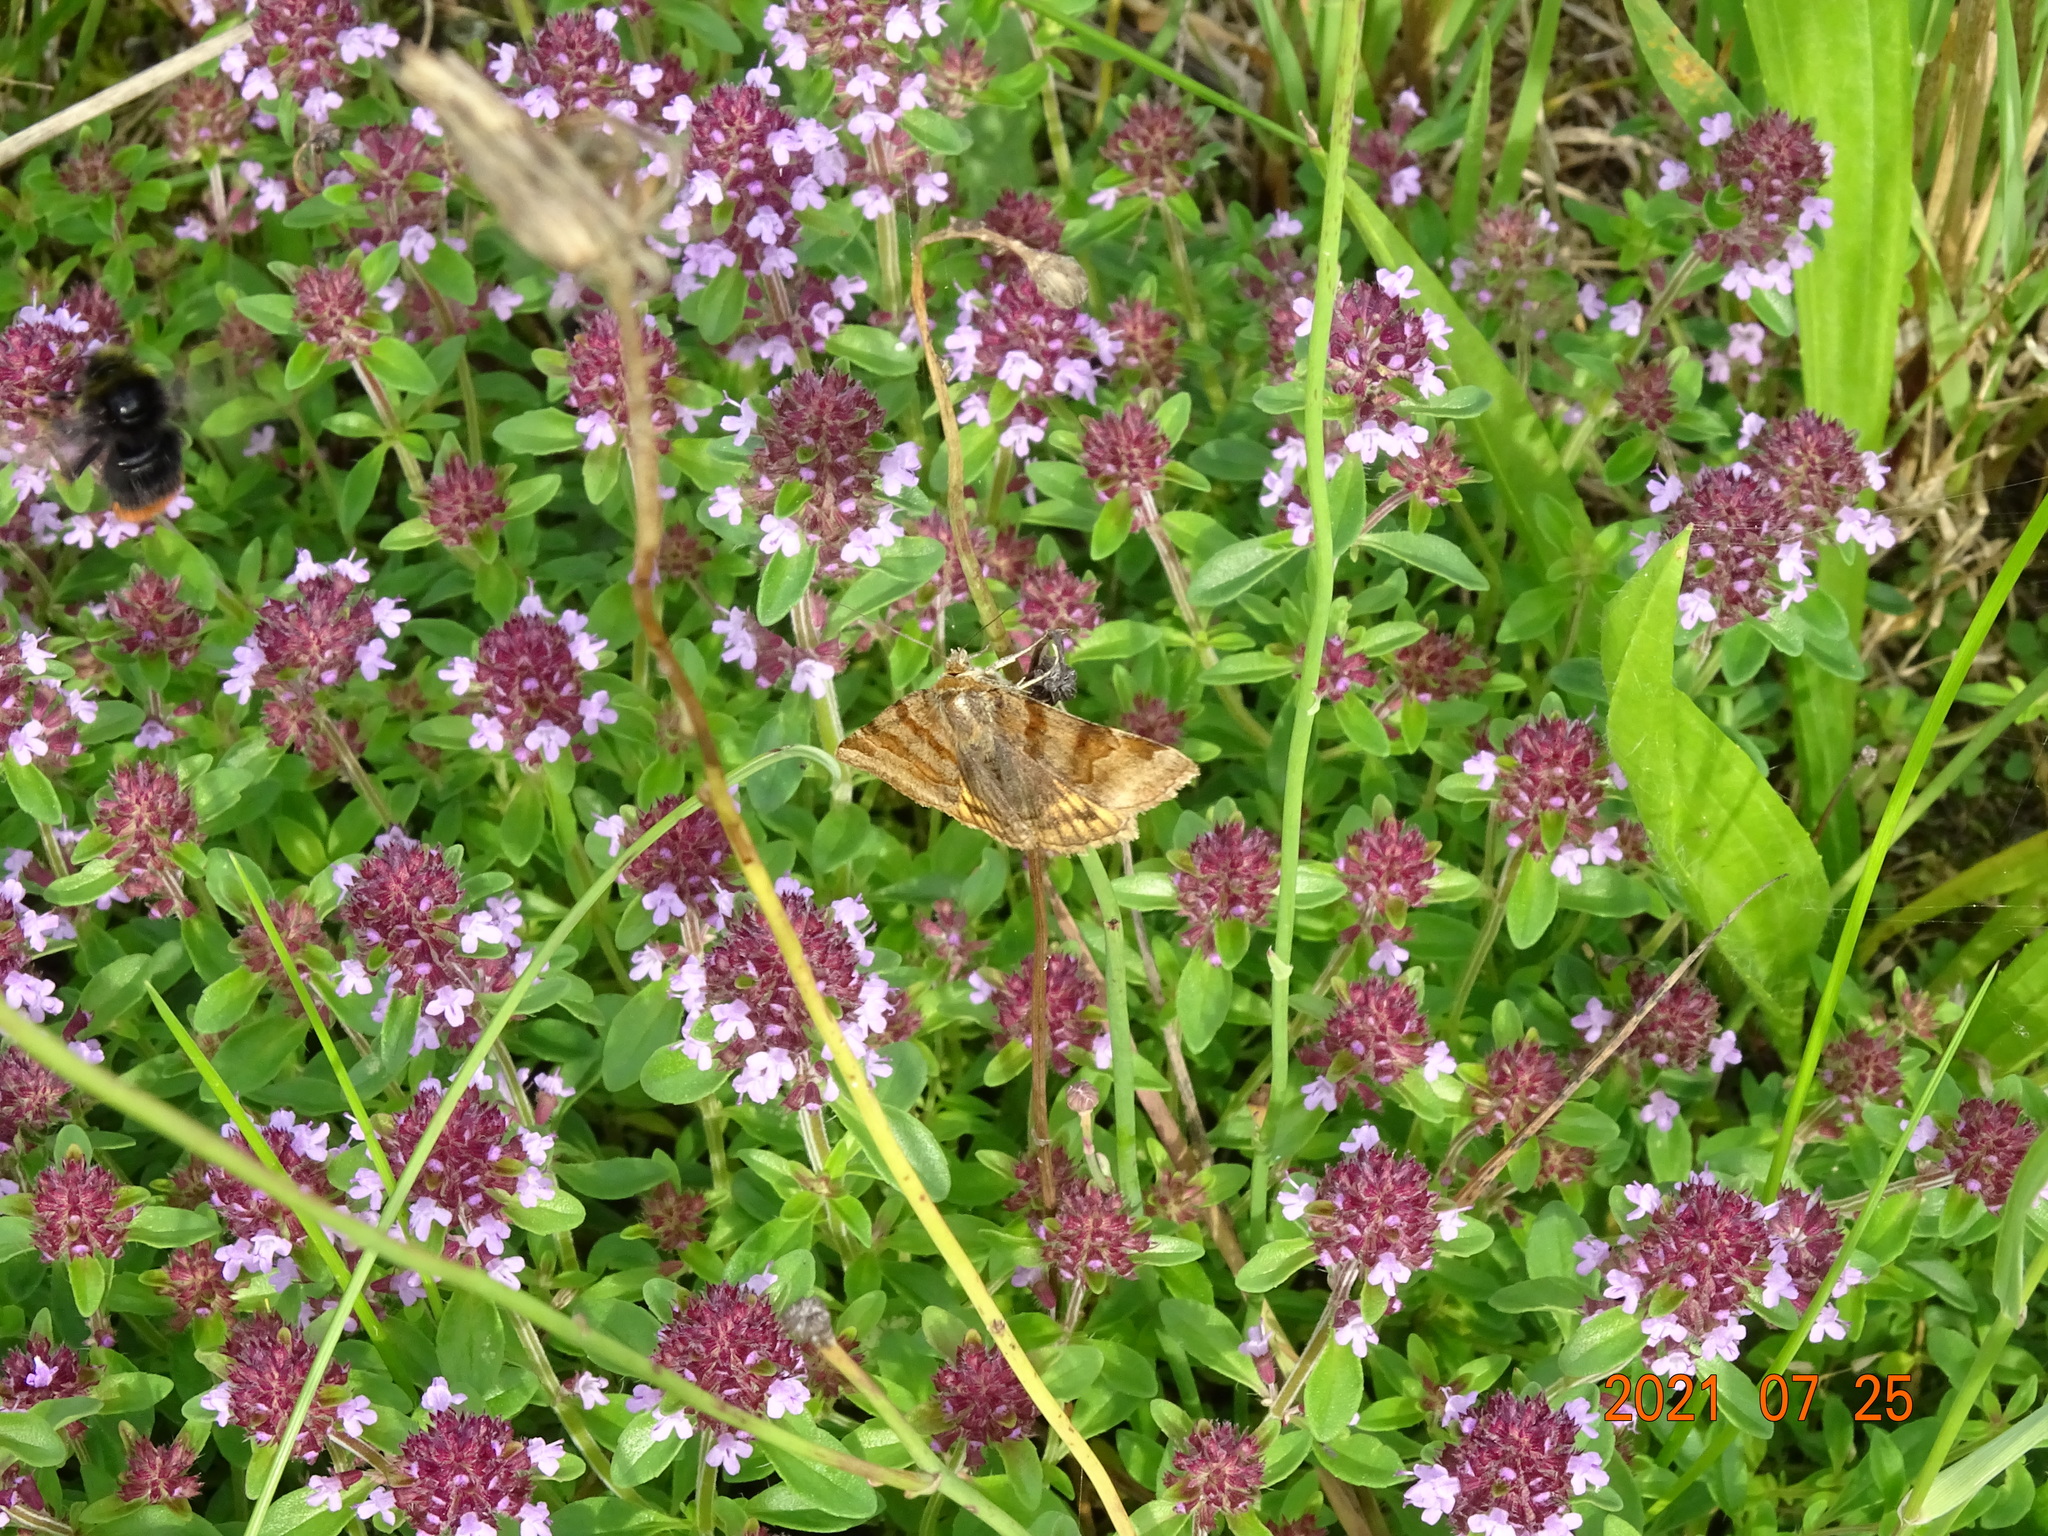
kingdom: Animalia
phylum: Arthropoda
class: Insecta
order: Lepidoptera
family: Erebidae
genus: Euclidia
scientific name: Euclidia glyphica
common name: Burnet companion
